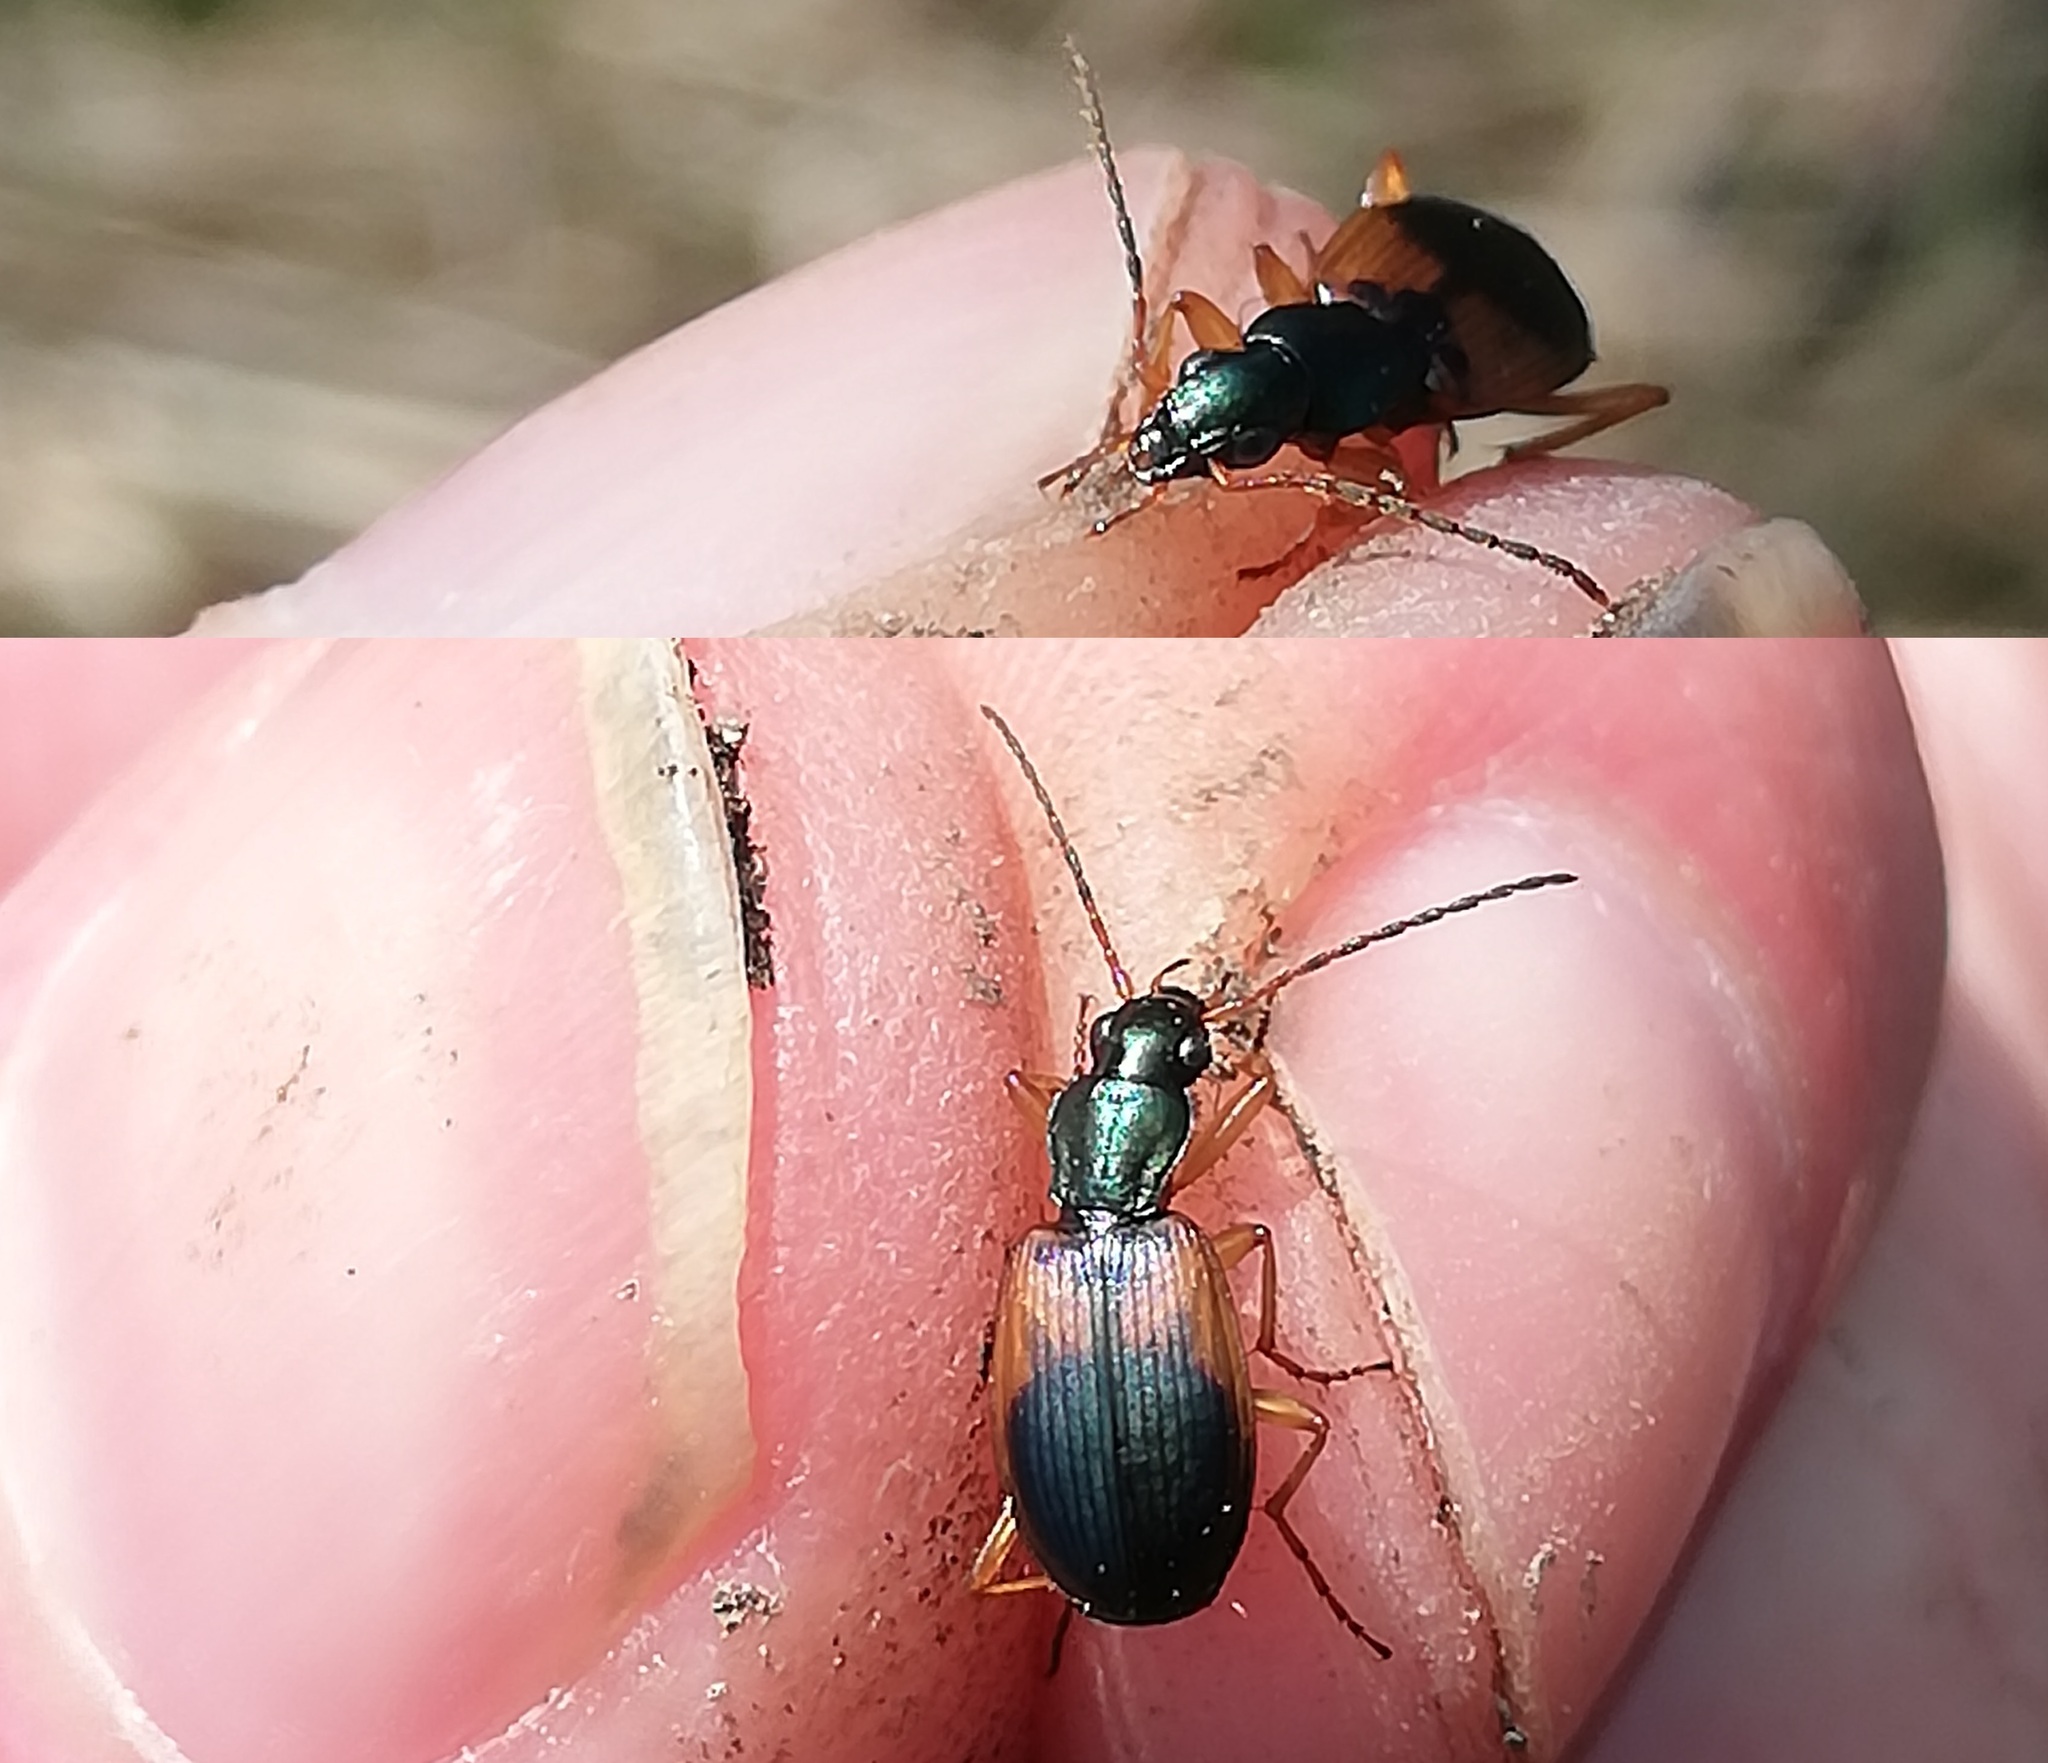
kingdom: Animalia
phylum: Arthropoda
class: Insecta
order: Coleoptera
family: Carabidae
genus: Anchomenus
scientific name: Anchomenus dorsalis
